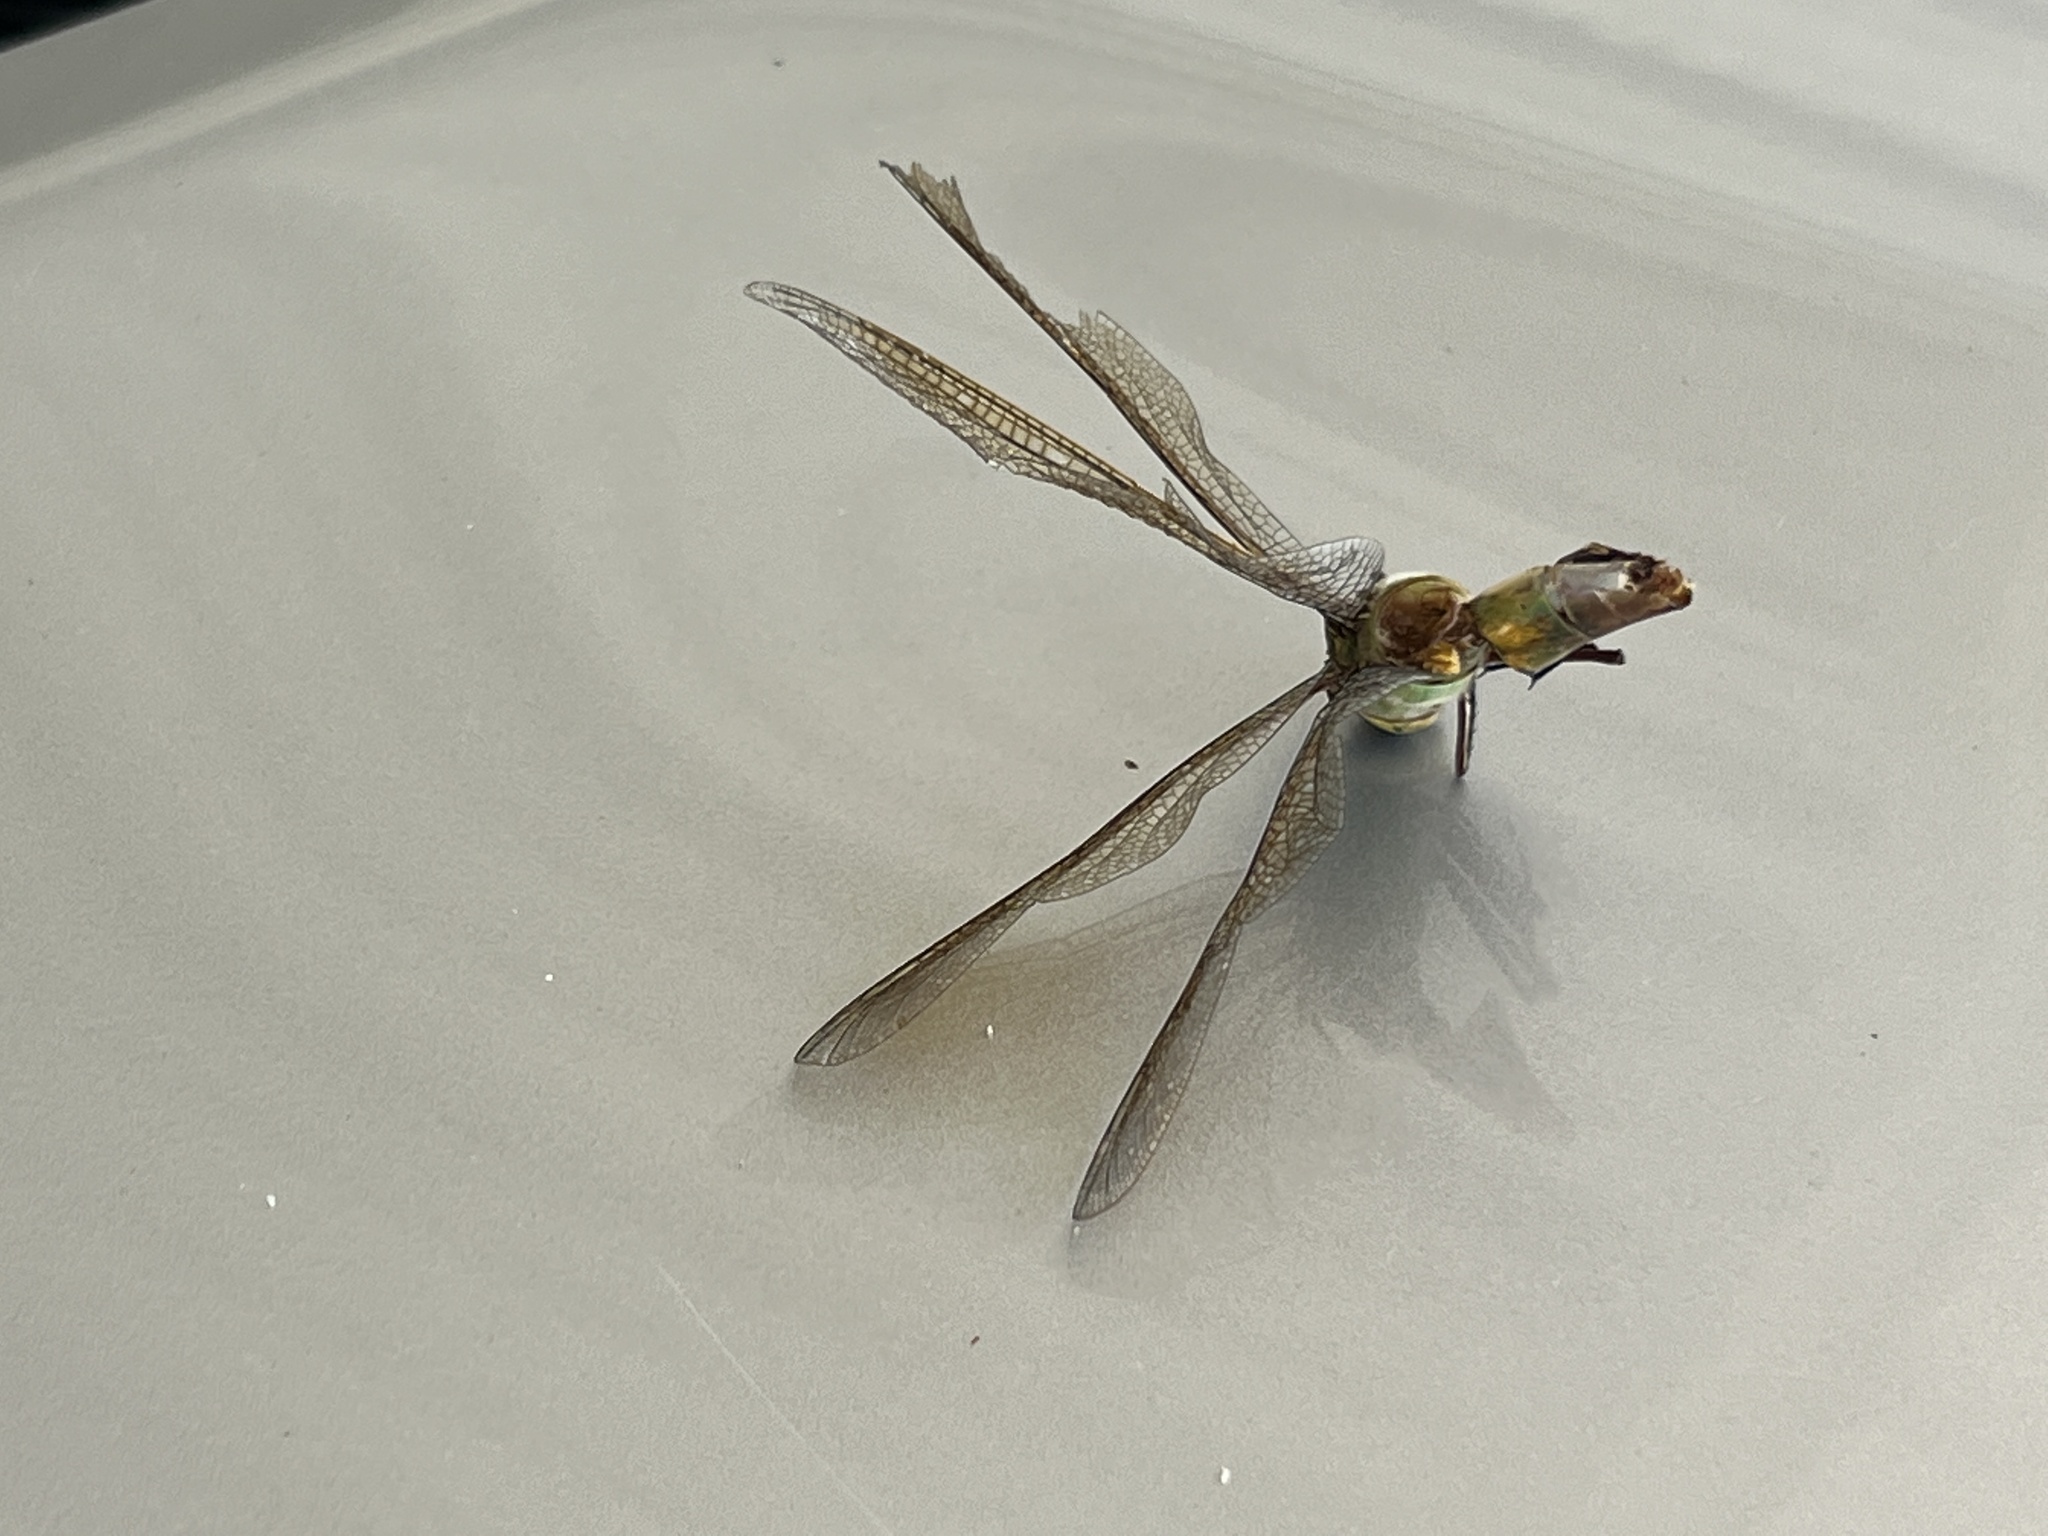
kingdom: Animalia
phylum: Arthropoda
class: Insecta
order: Odonata
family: Aeshnidae
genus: Anax
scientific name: Anax junius
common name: Common green darner
